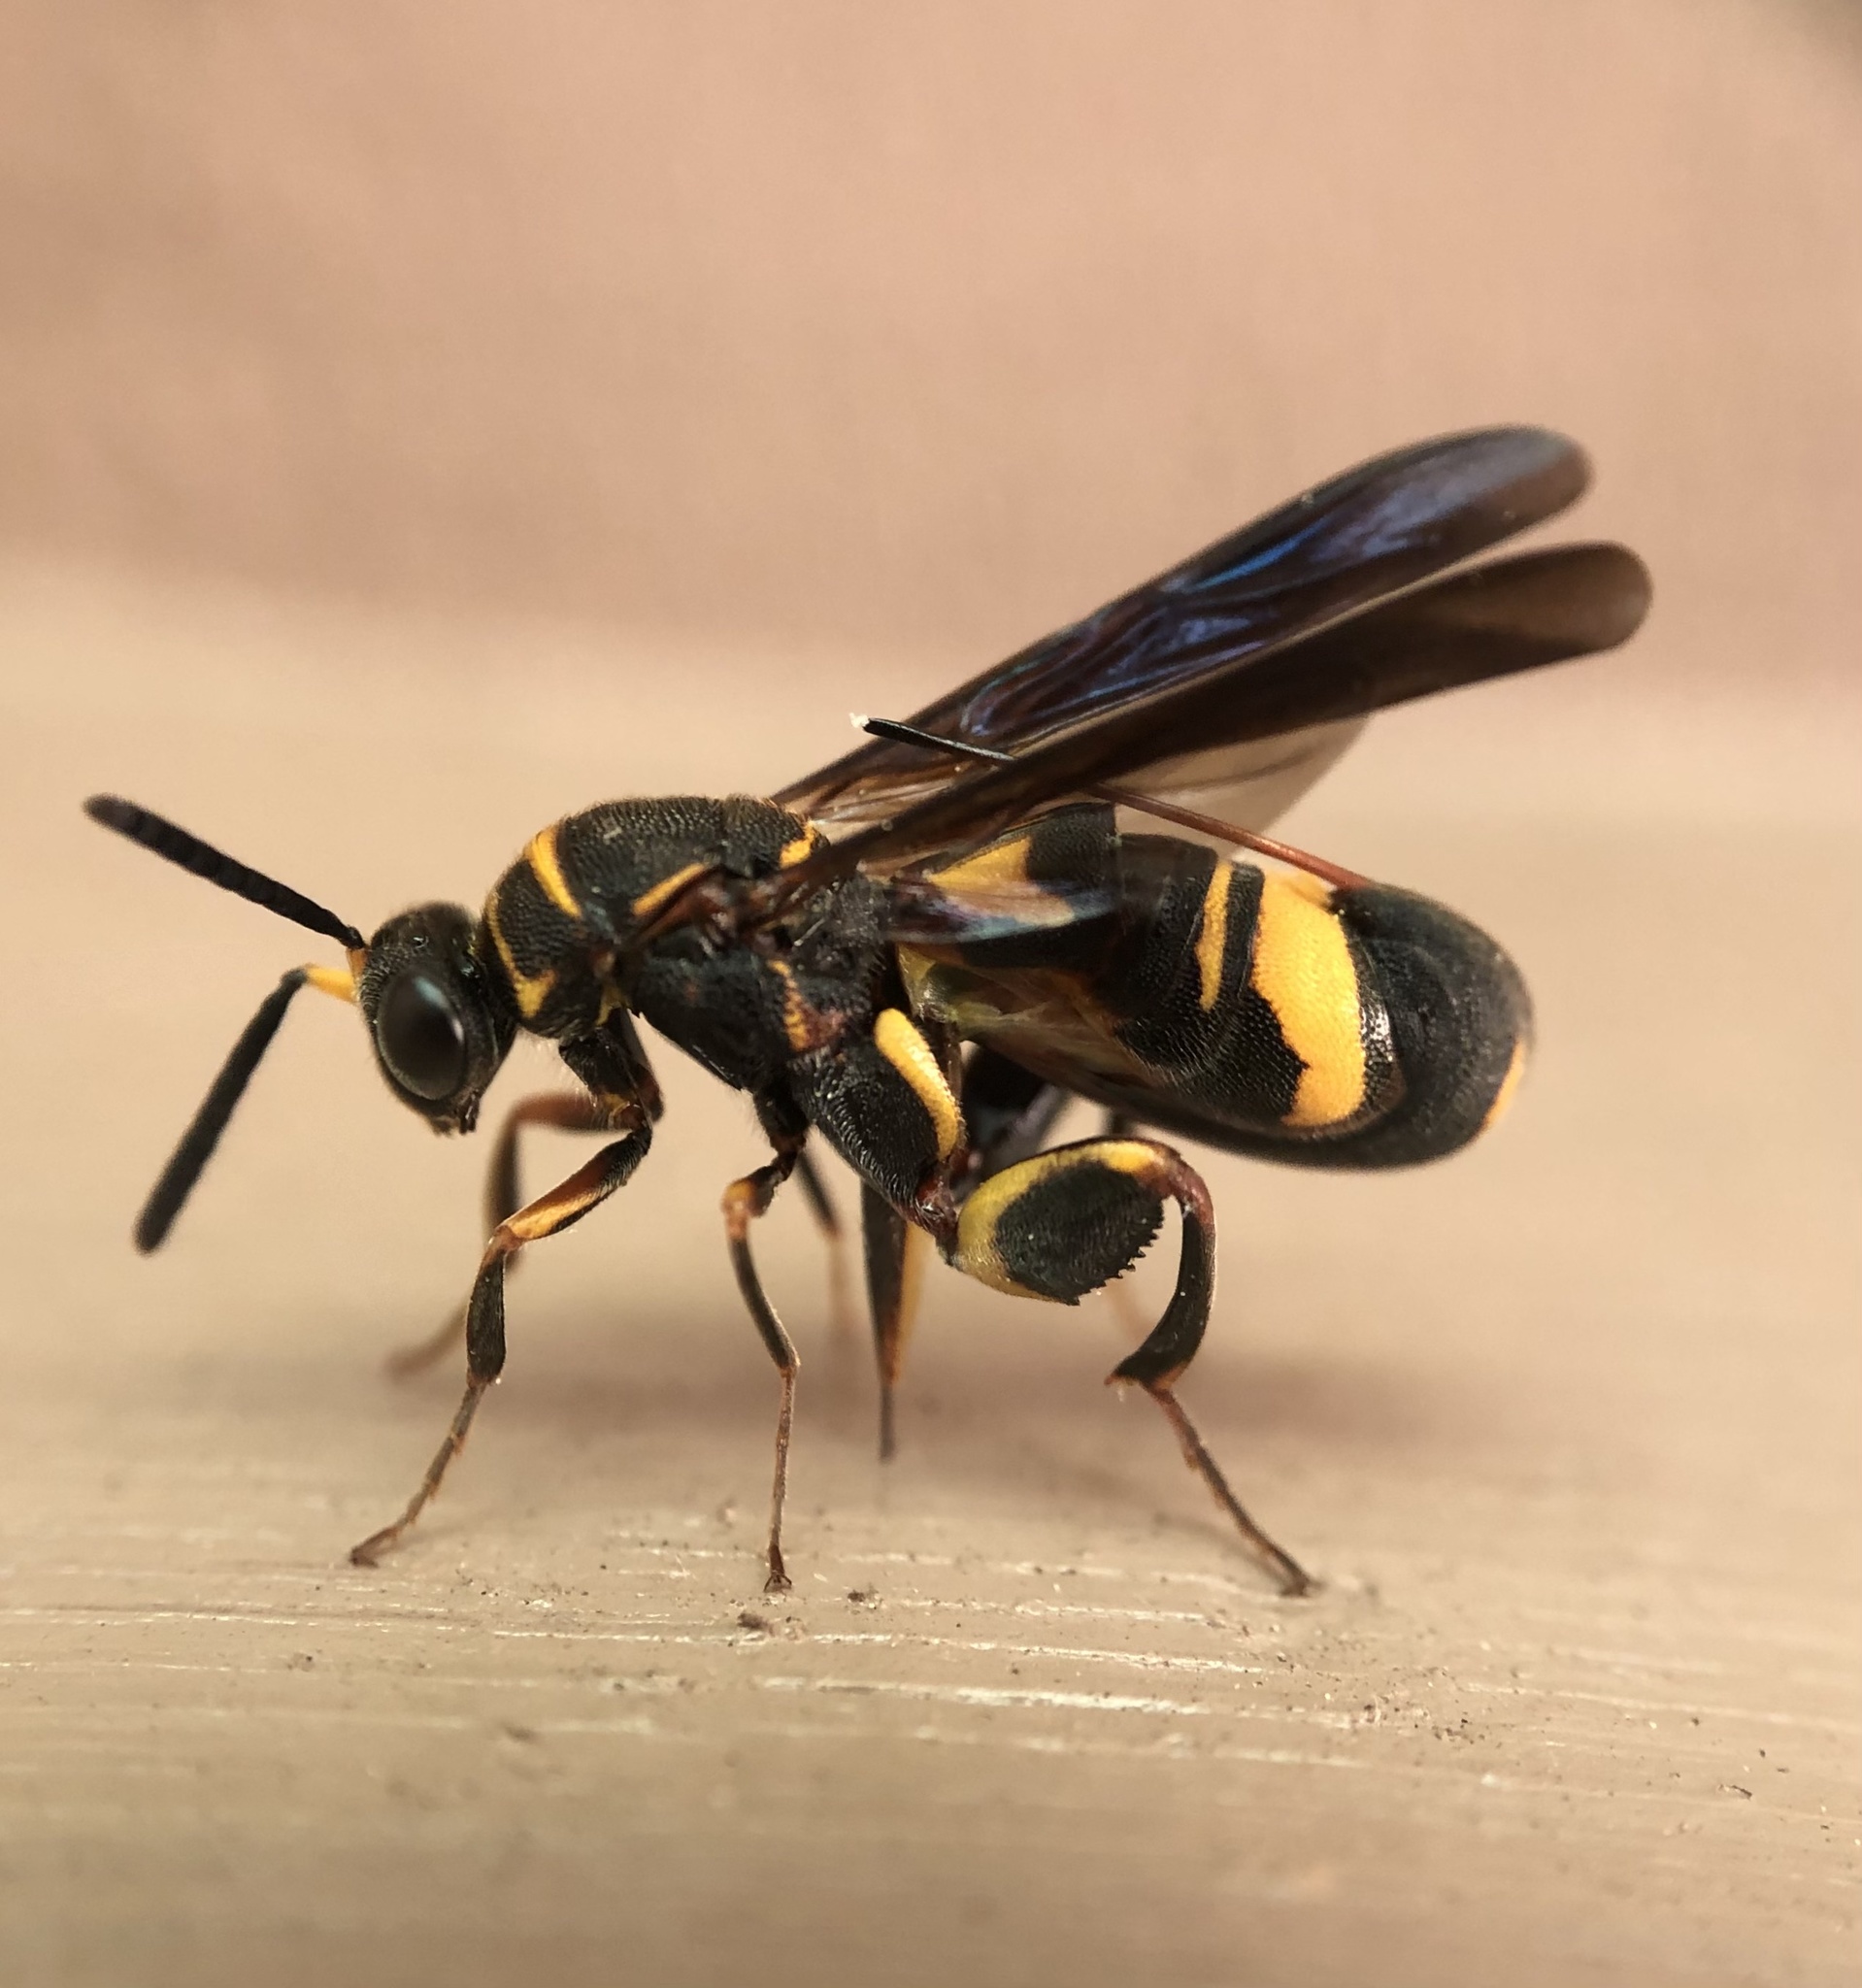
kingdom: Animalia
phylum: Arthropoda
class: Insecta
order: Hymenoptera
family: Leucospidae
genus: Leucospis
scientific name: Leucospis affinis
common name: Wasp
